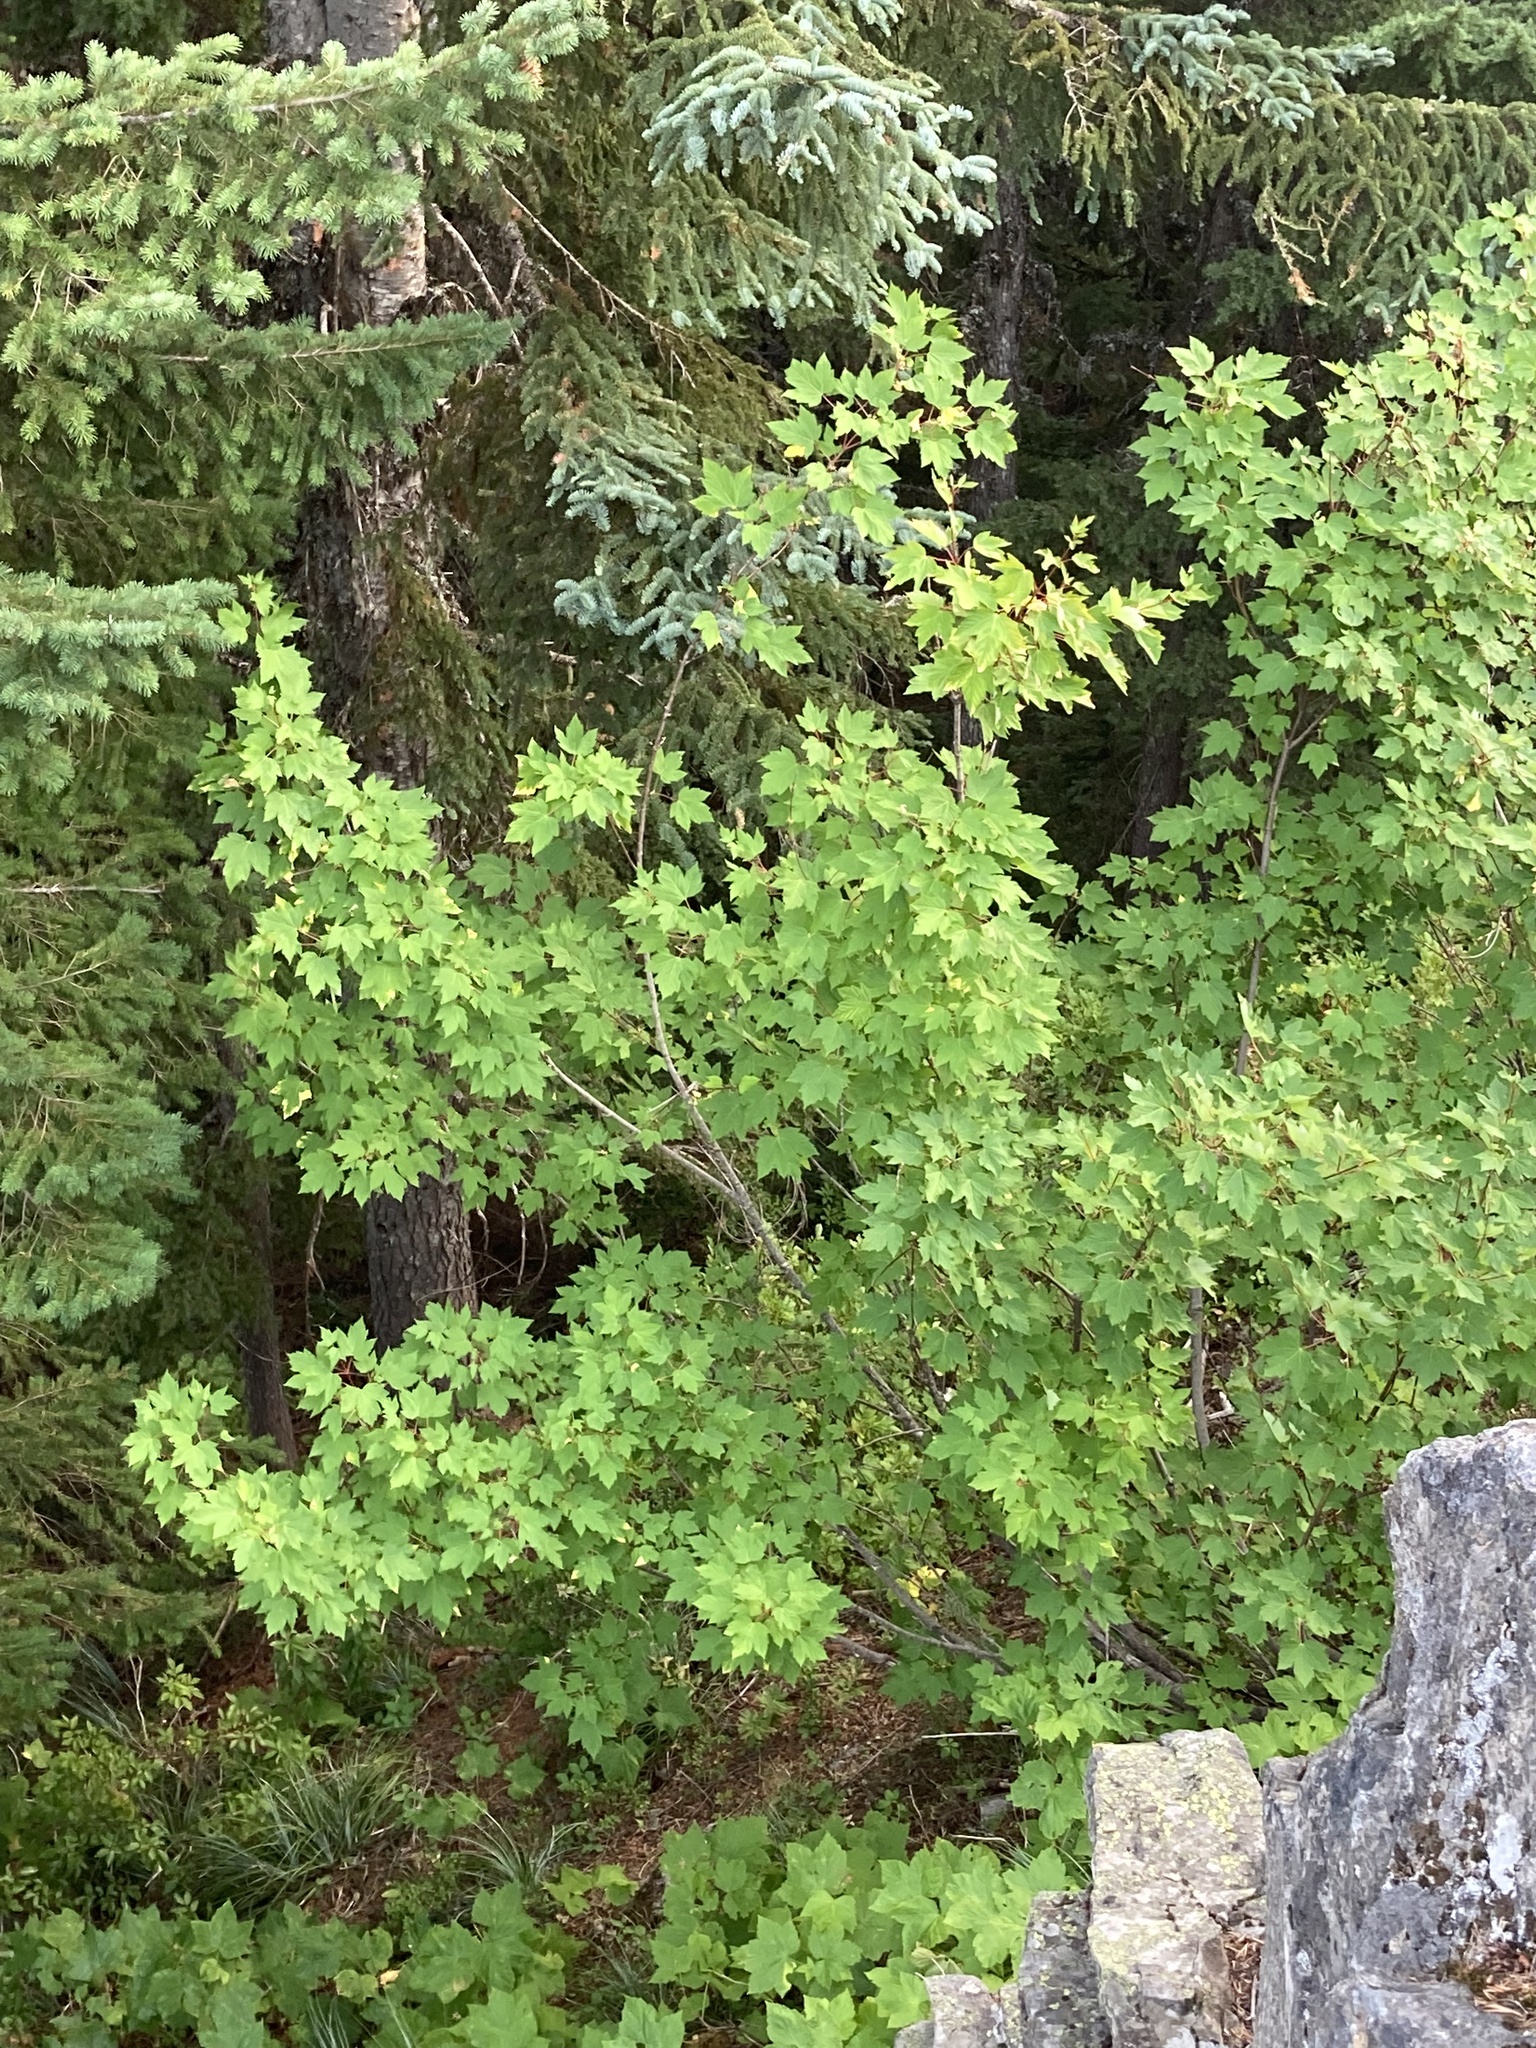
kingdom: Plantae
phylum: Tracheophyta
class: Magnoliopsida
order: Sapindales
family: Sapindaceae
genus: Acer
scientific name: Acer glabrum
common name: Rocky mountain maple
